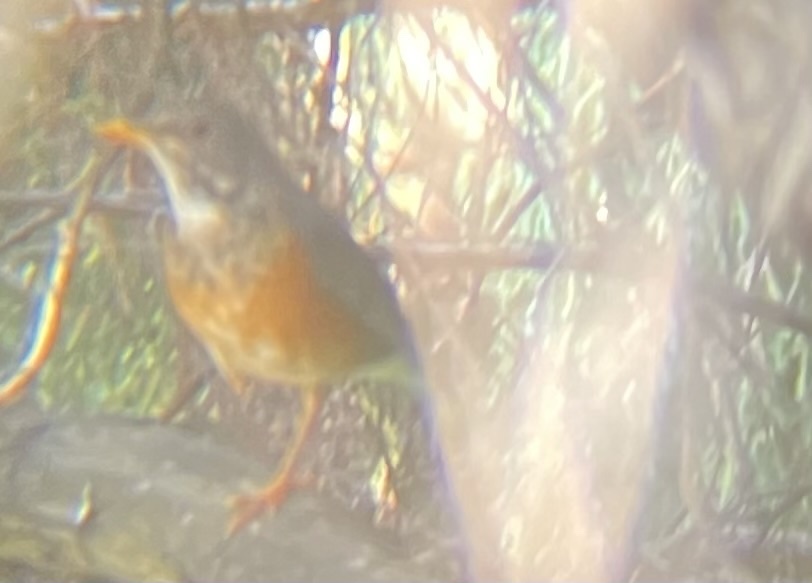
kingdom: Animalia
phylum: Chordata
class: Aves
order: Passeriformes
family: Turdidae
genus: Turdus
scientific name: Turdus hortulorum
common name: Grey-backed thrush
